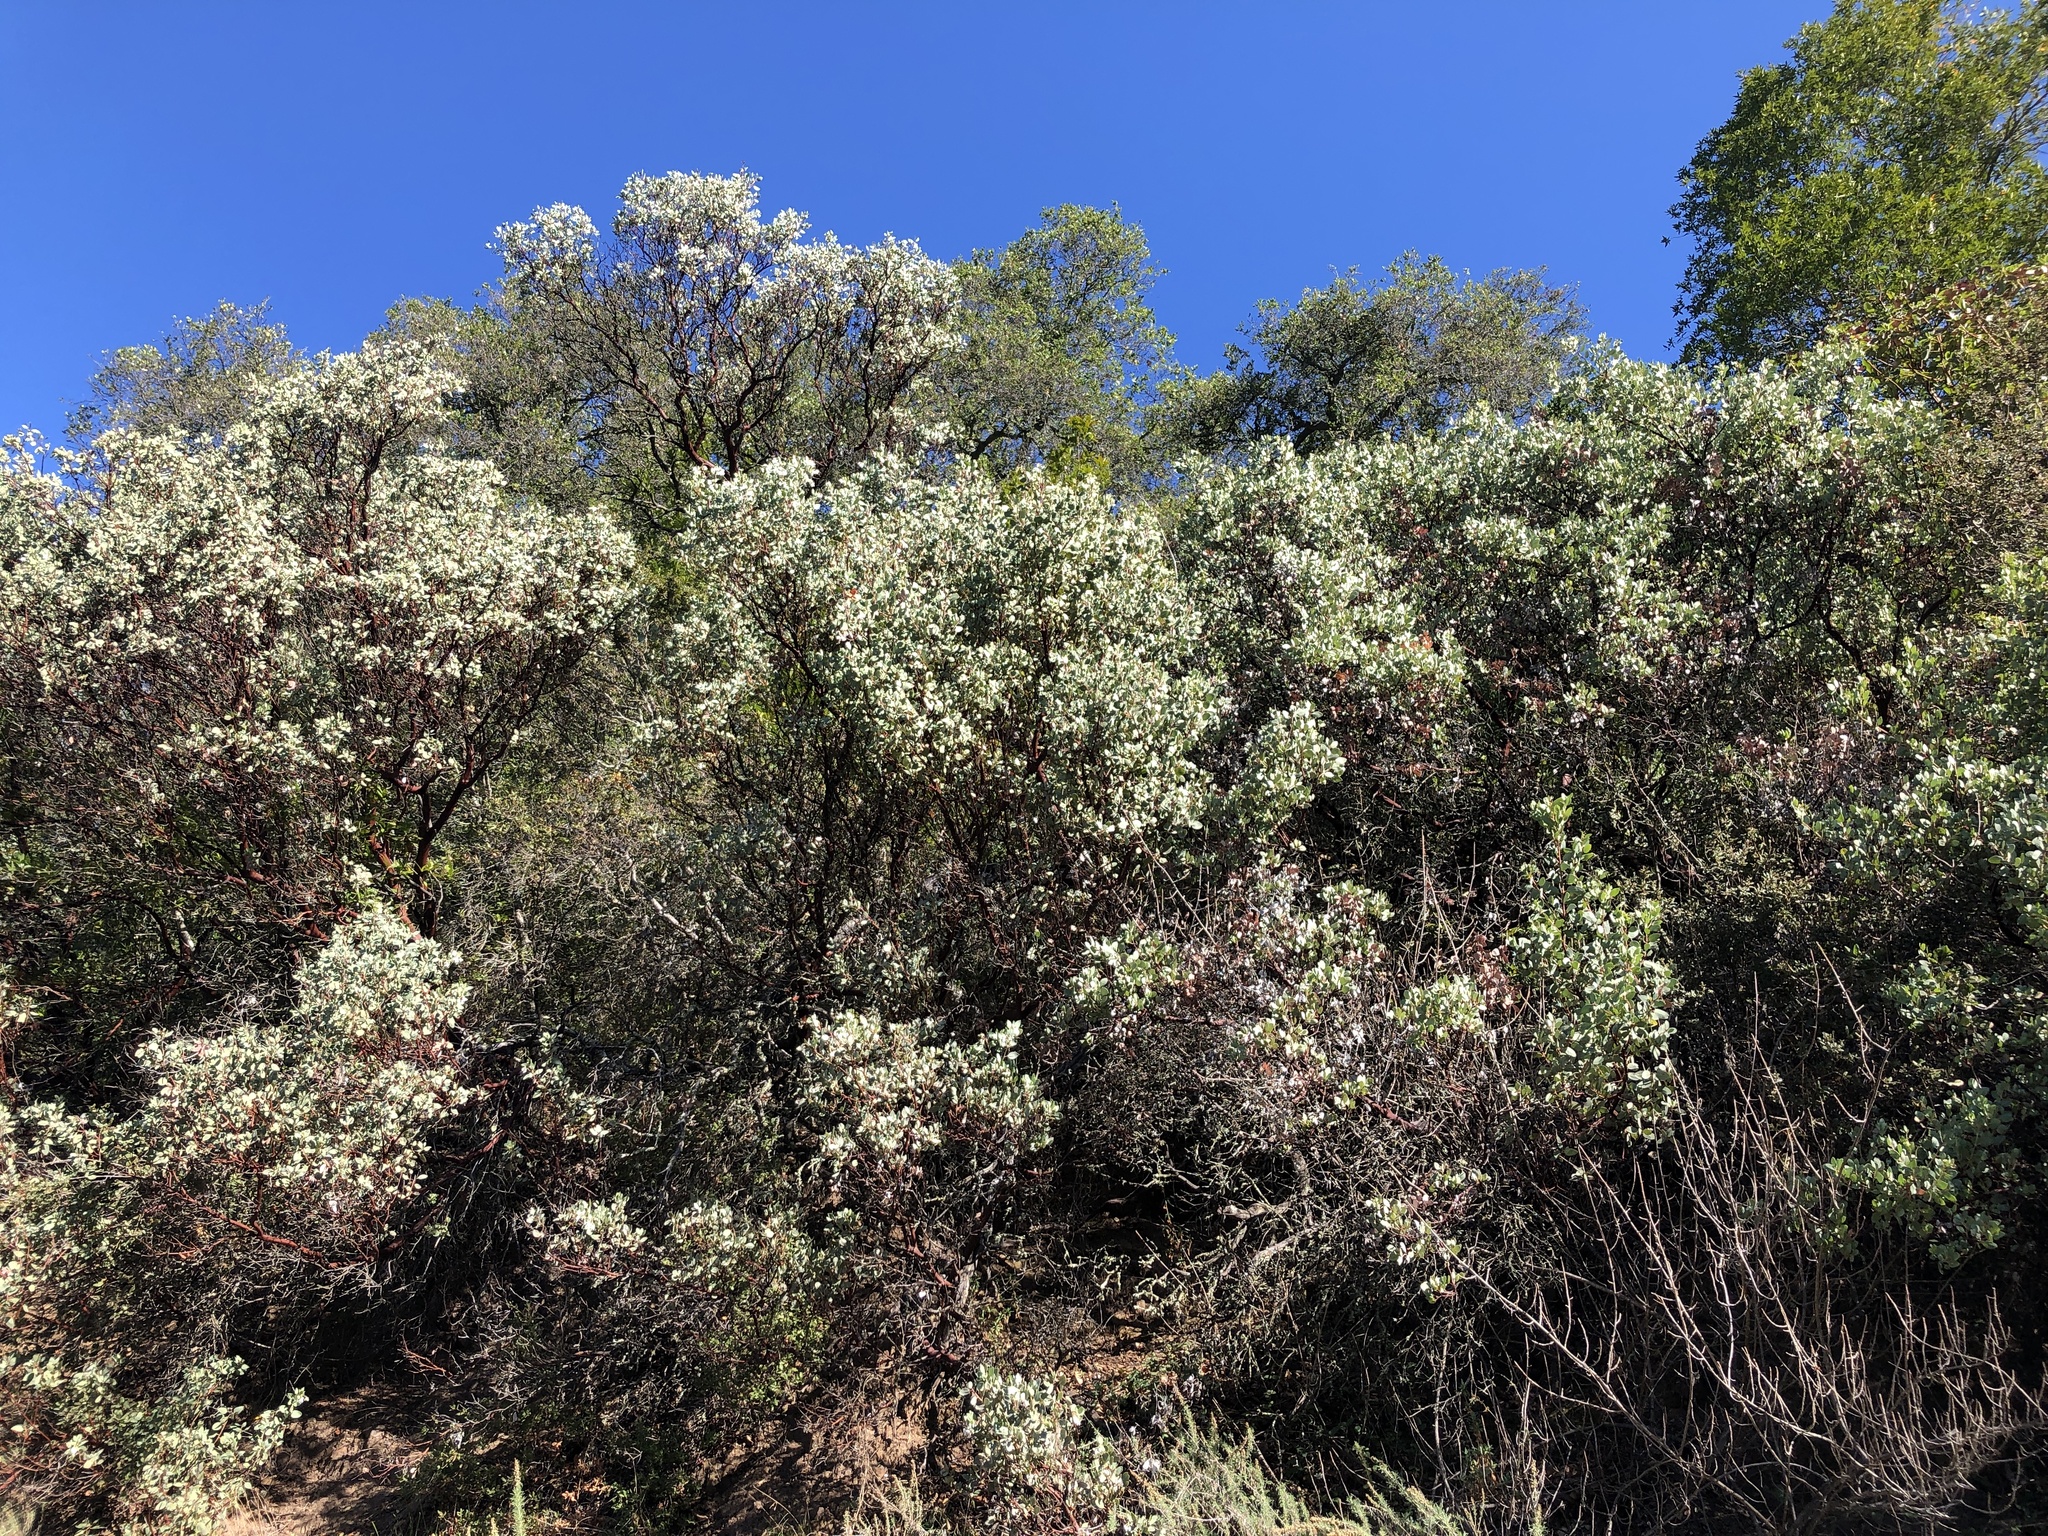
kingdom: Plantae
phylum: Tracheophyta
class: Magnoliopsida
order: Ericales
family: Ericaceae
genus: Arctostaphylos
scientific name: Arctostaphylos glauca
